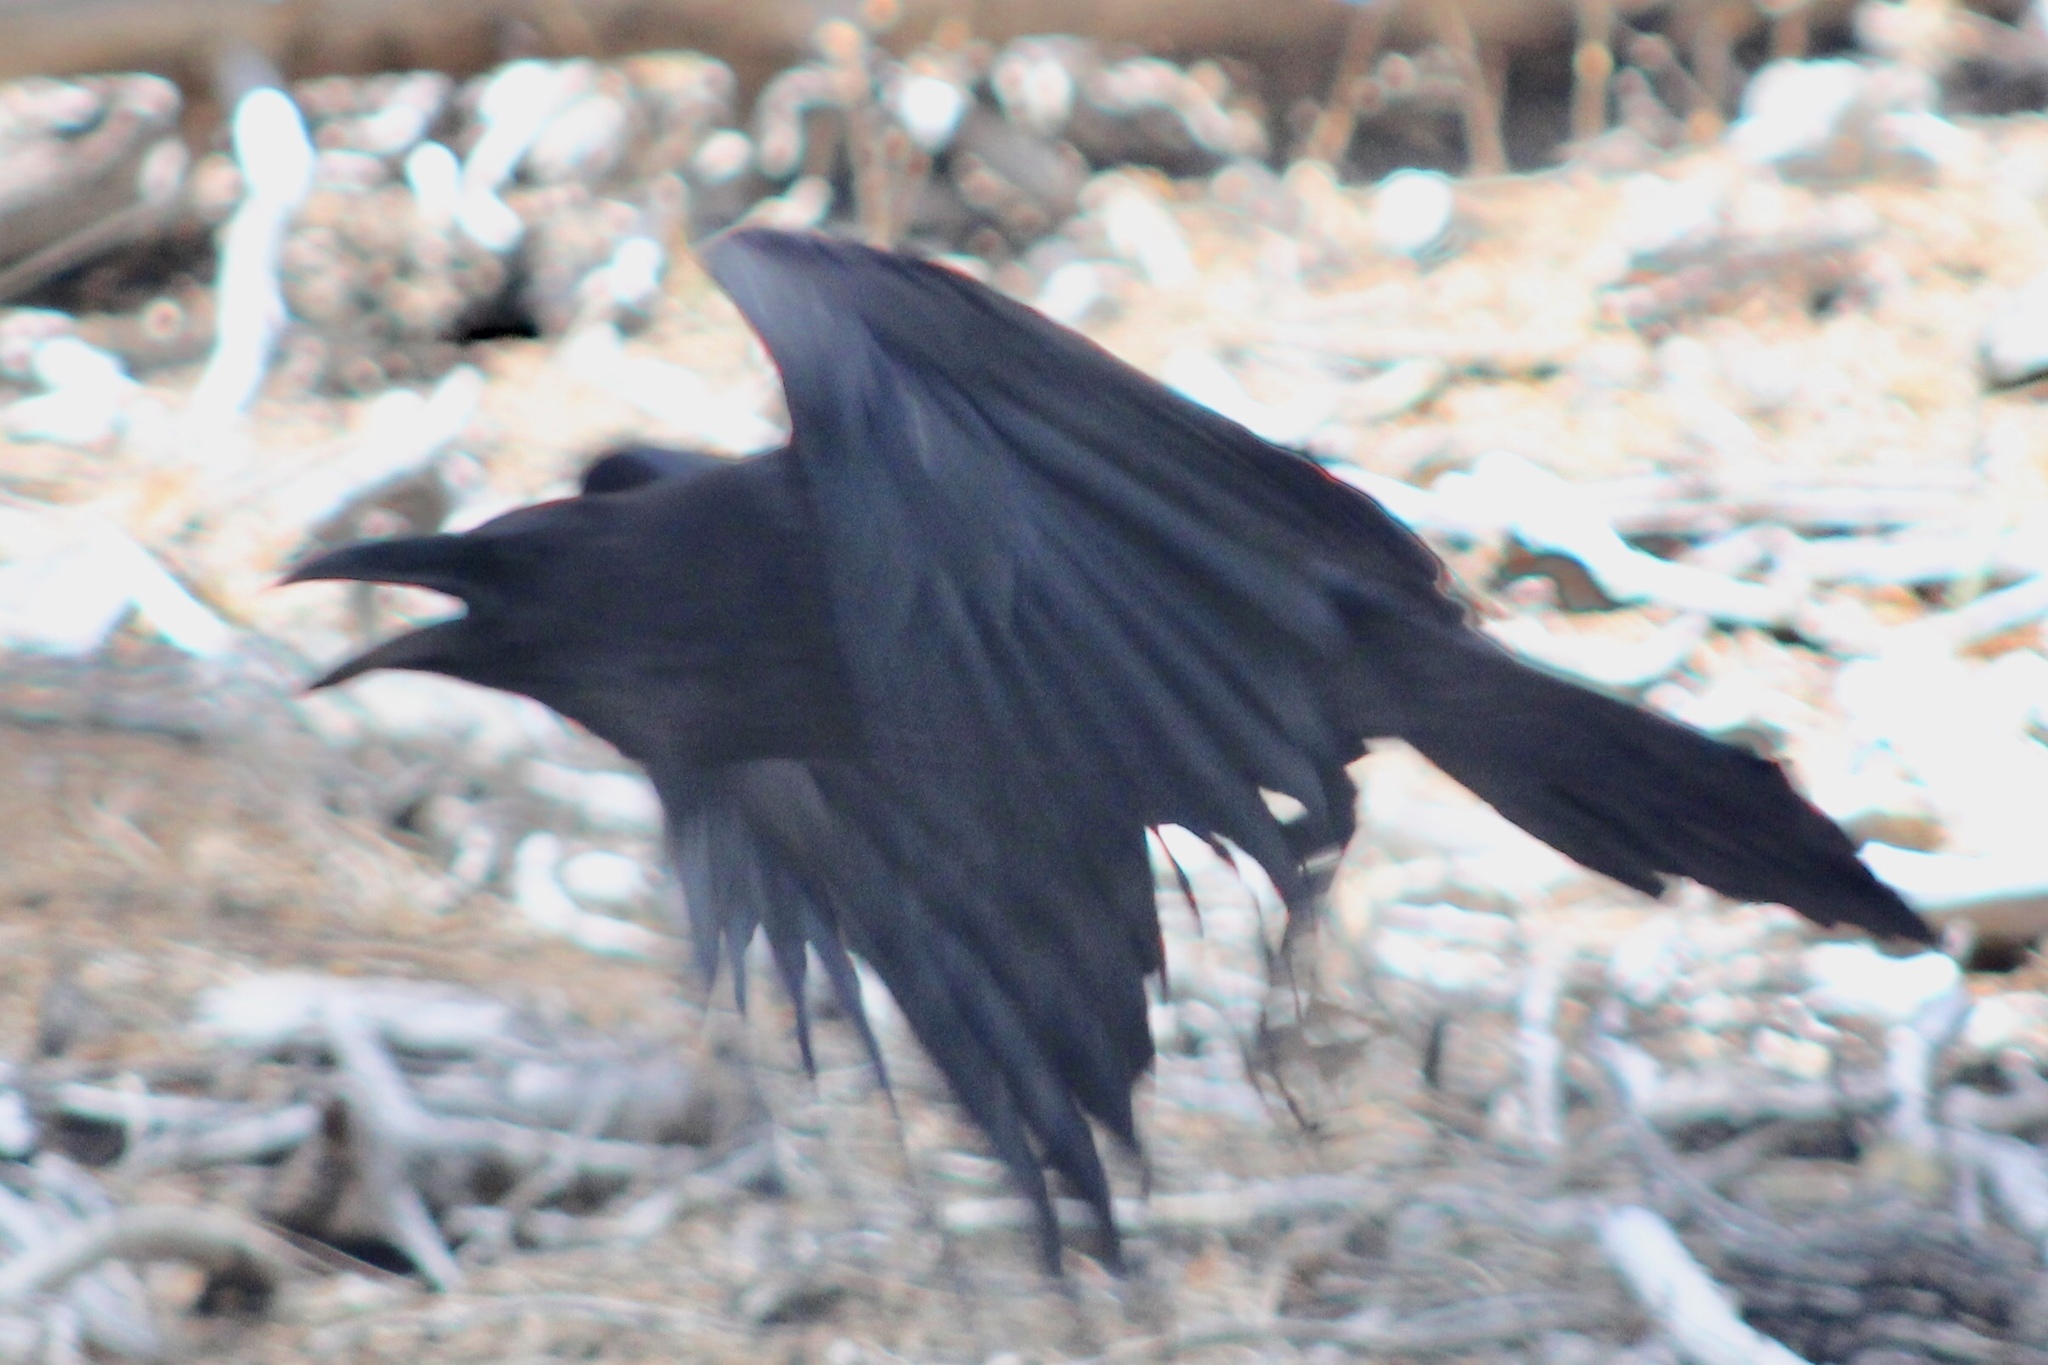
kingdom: Animalia
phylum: Chordata
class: Aves
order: Passeriformes
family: Corvidae
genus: Corvus
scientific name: Corvus corax
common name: Common raven
